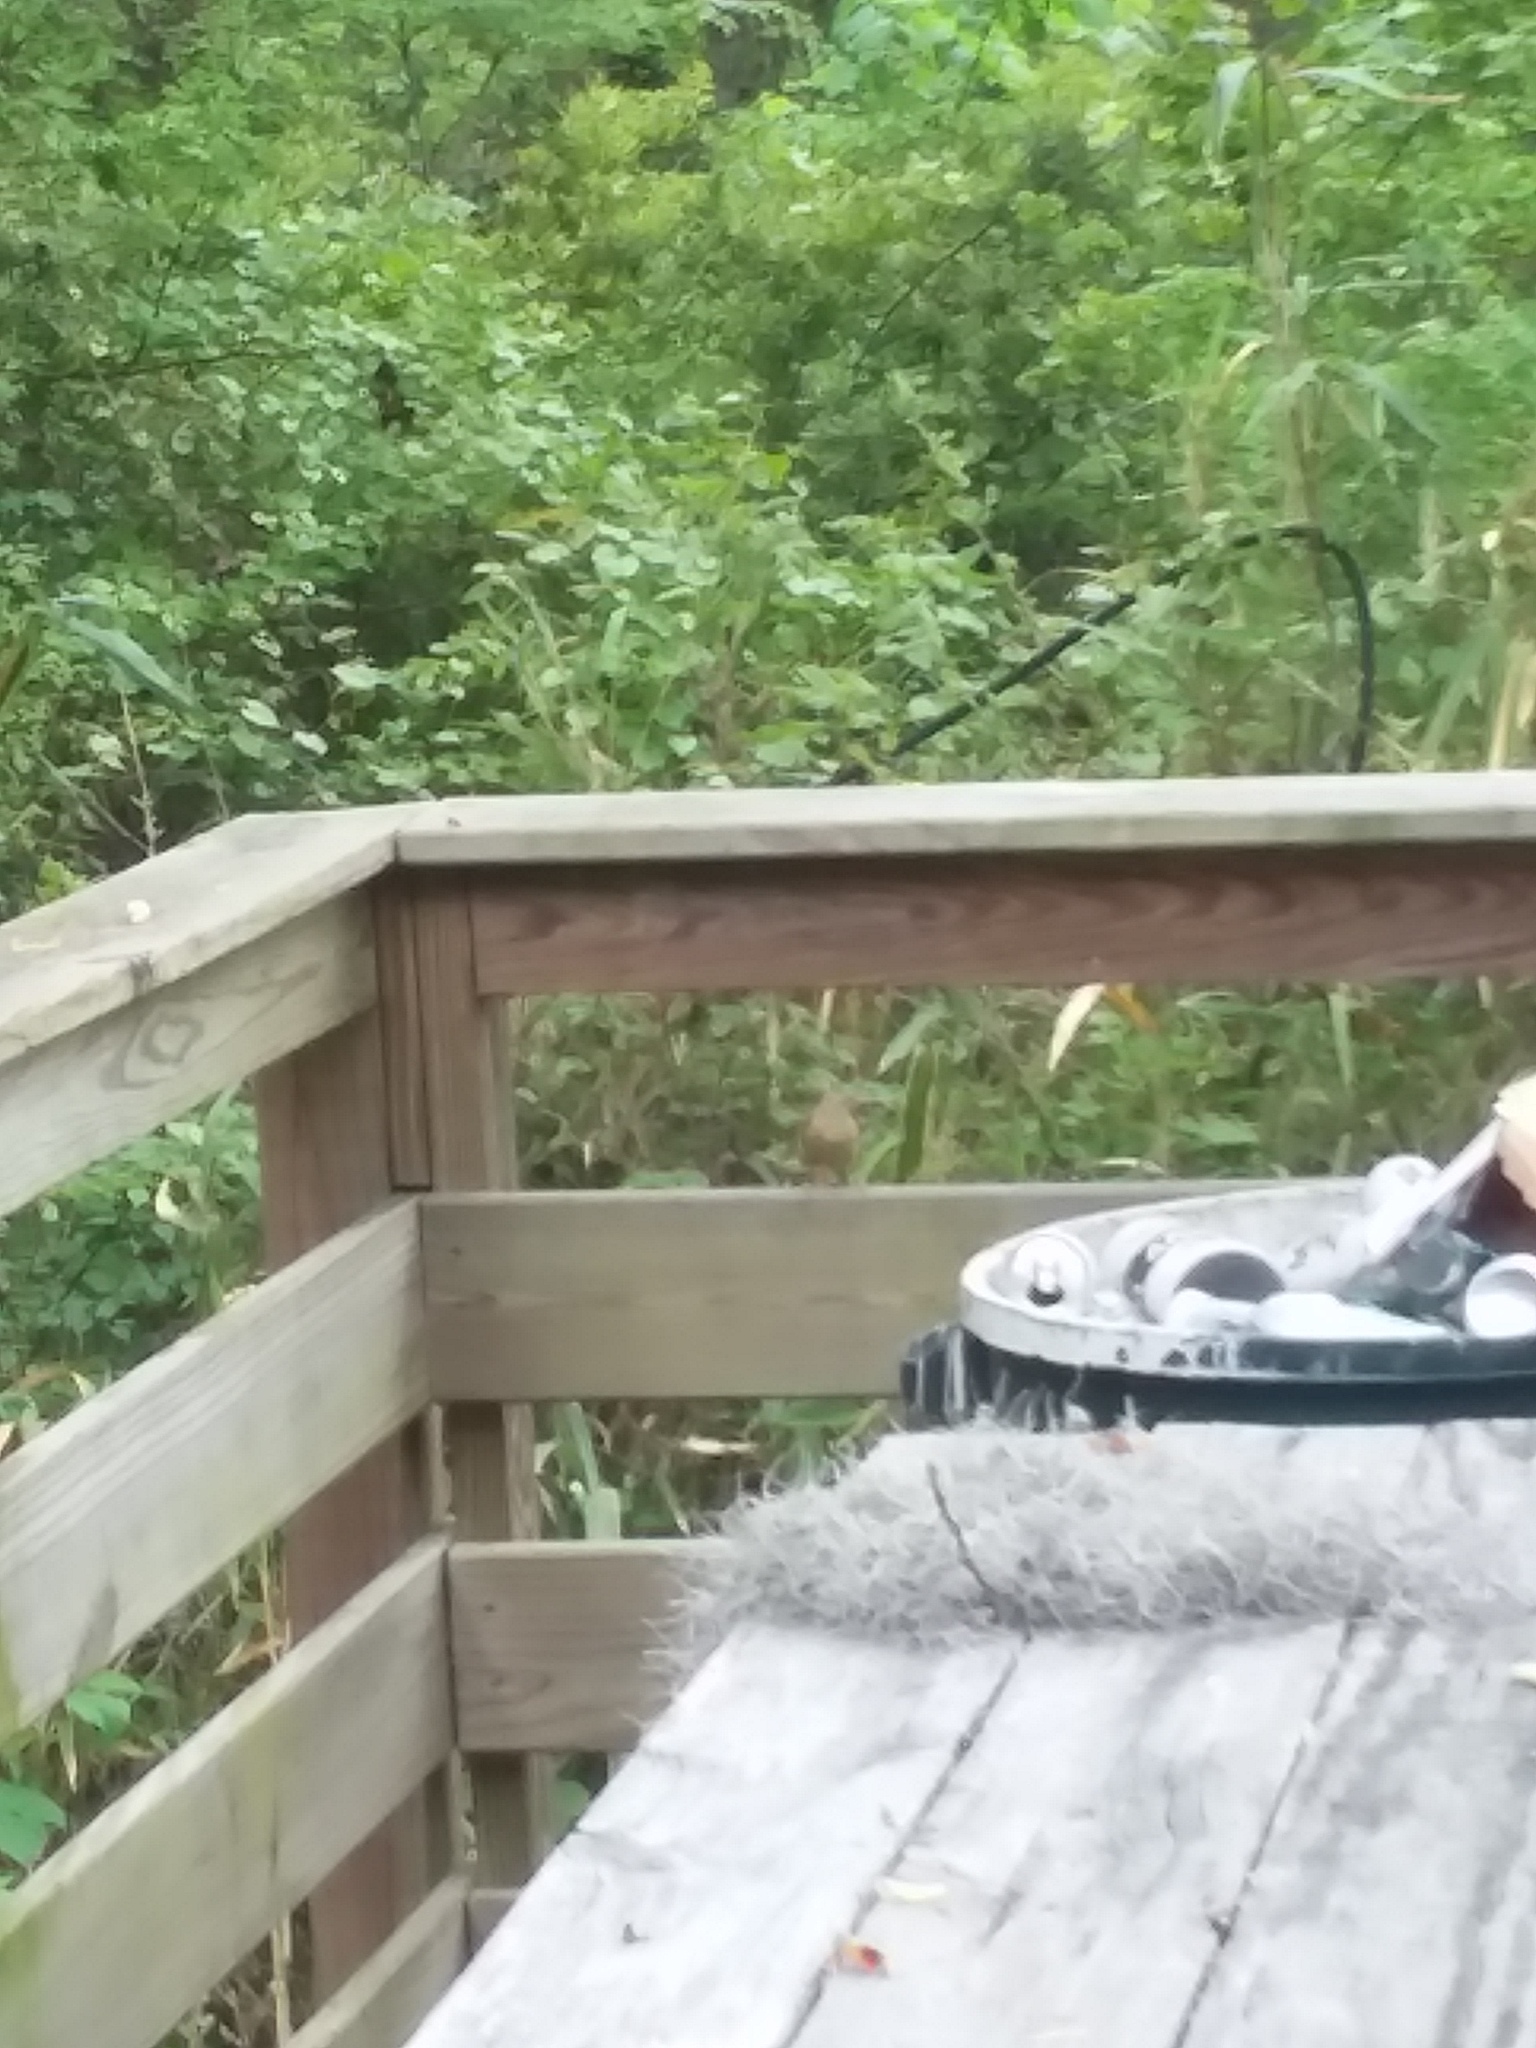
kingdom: Animalia
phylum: Chordata
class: Aves
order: Passeriformes
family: Troglodytidae
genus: Thryothorus
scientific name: Thryothorus ludovicianus
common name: Carolina wren
